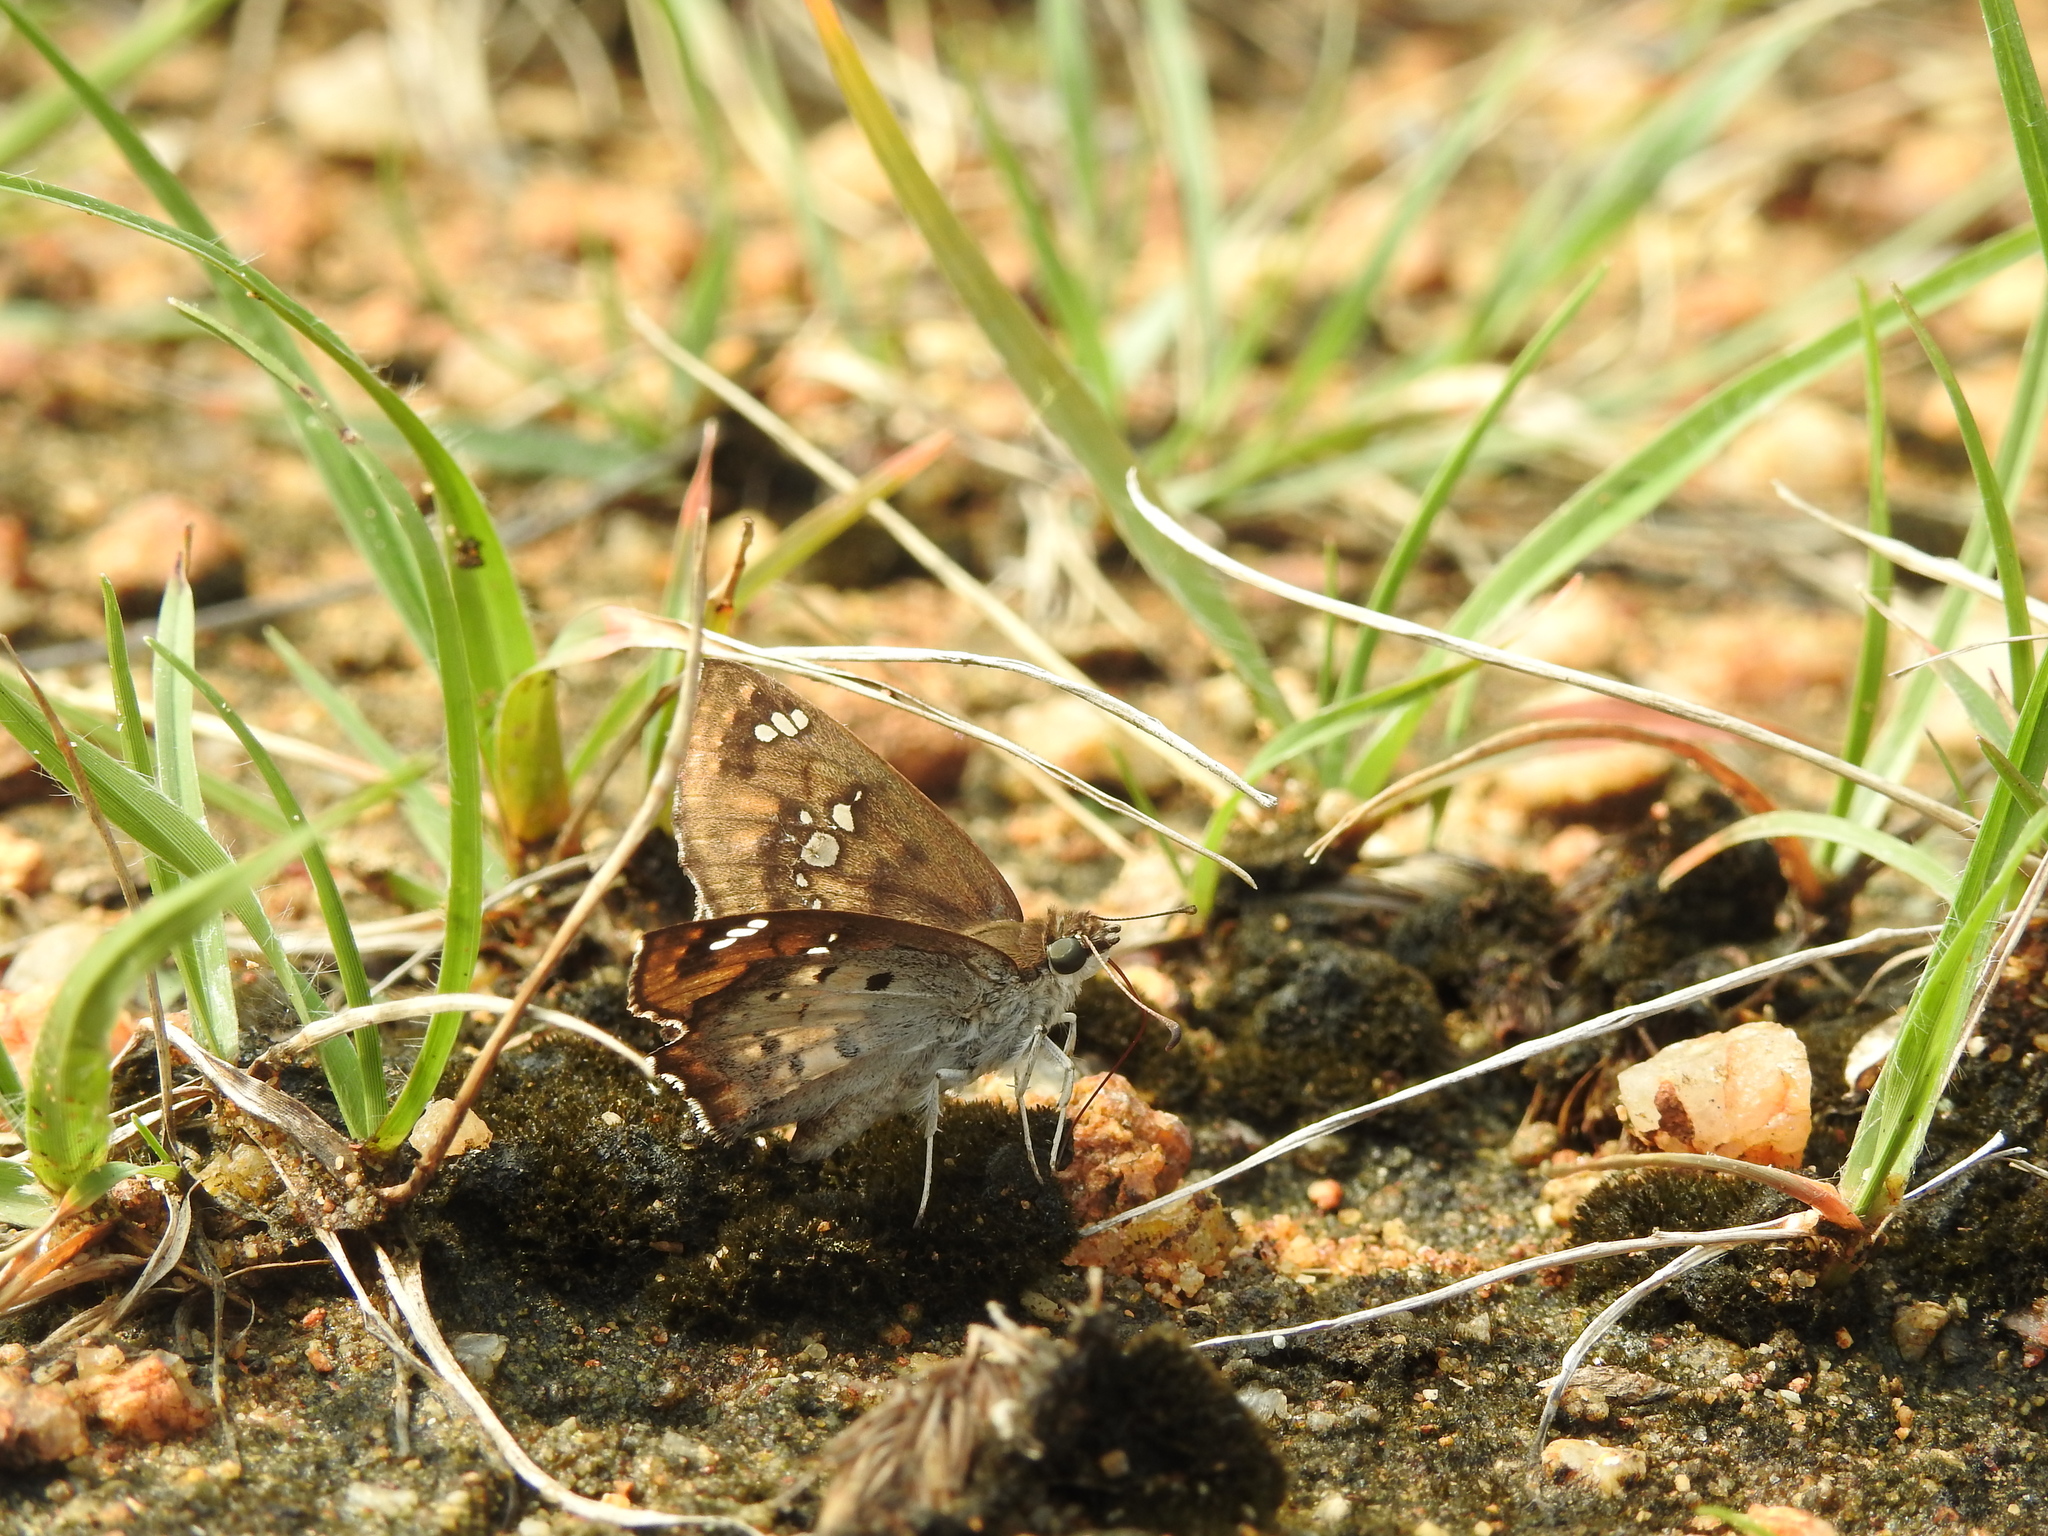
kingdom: Animalia
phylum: Arthropoda
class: Insecta
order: Lepidoptera
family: Hesperiidae
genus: Caprona
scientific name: Caprona ransonnettii
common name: Golden angle
